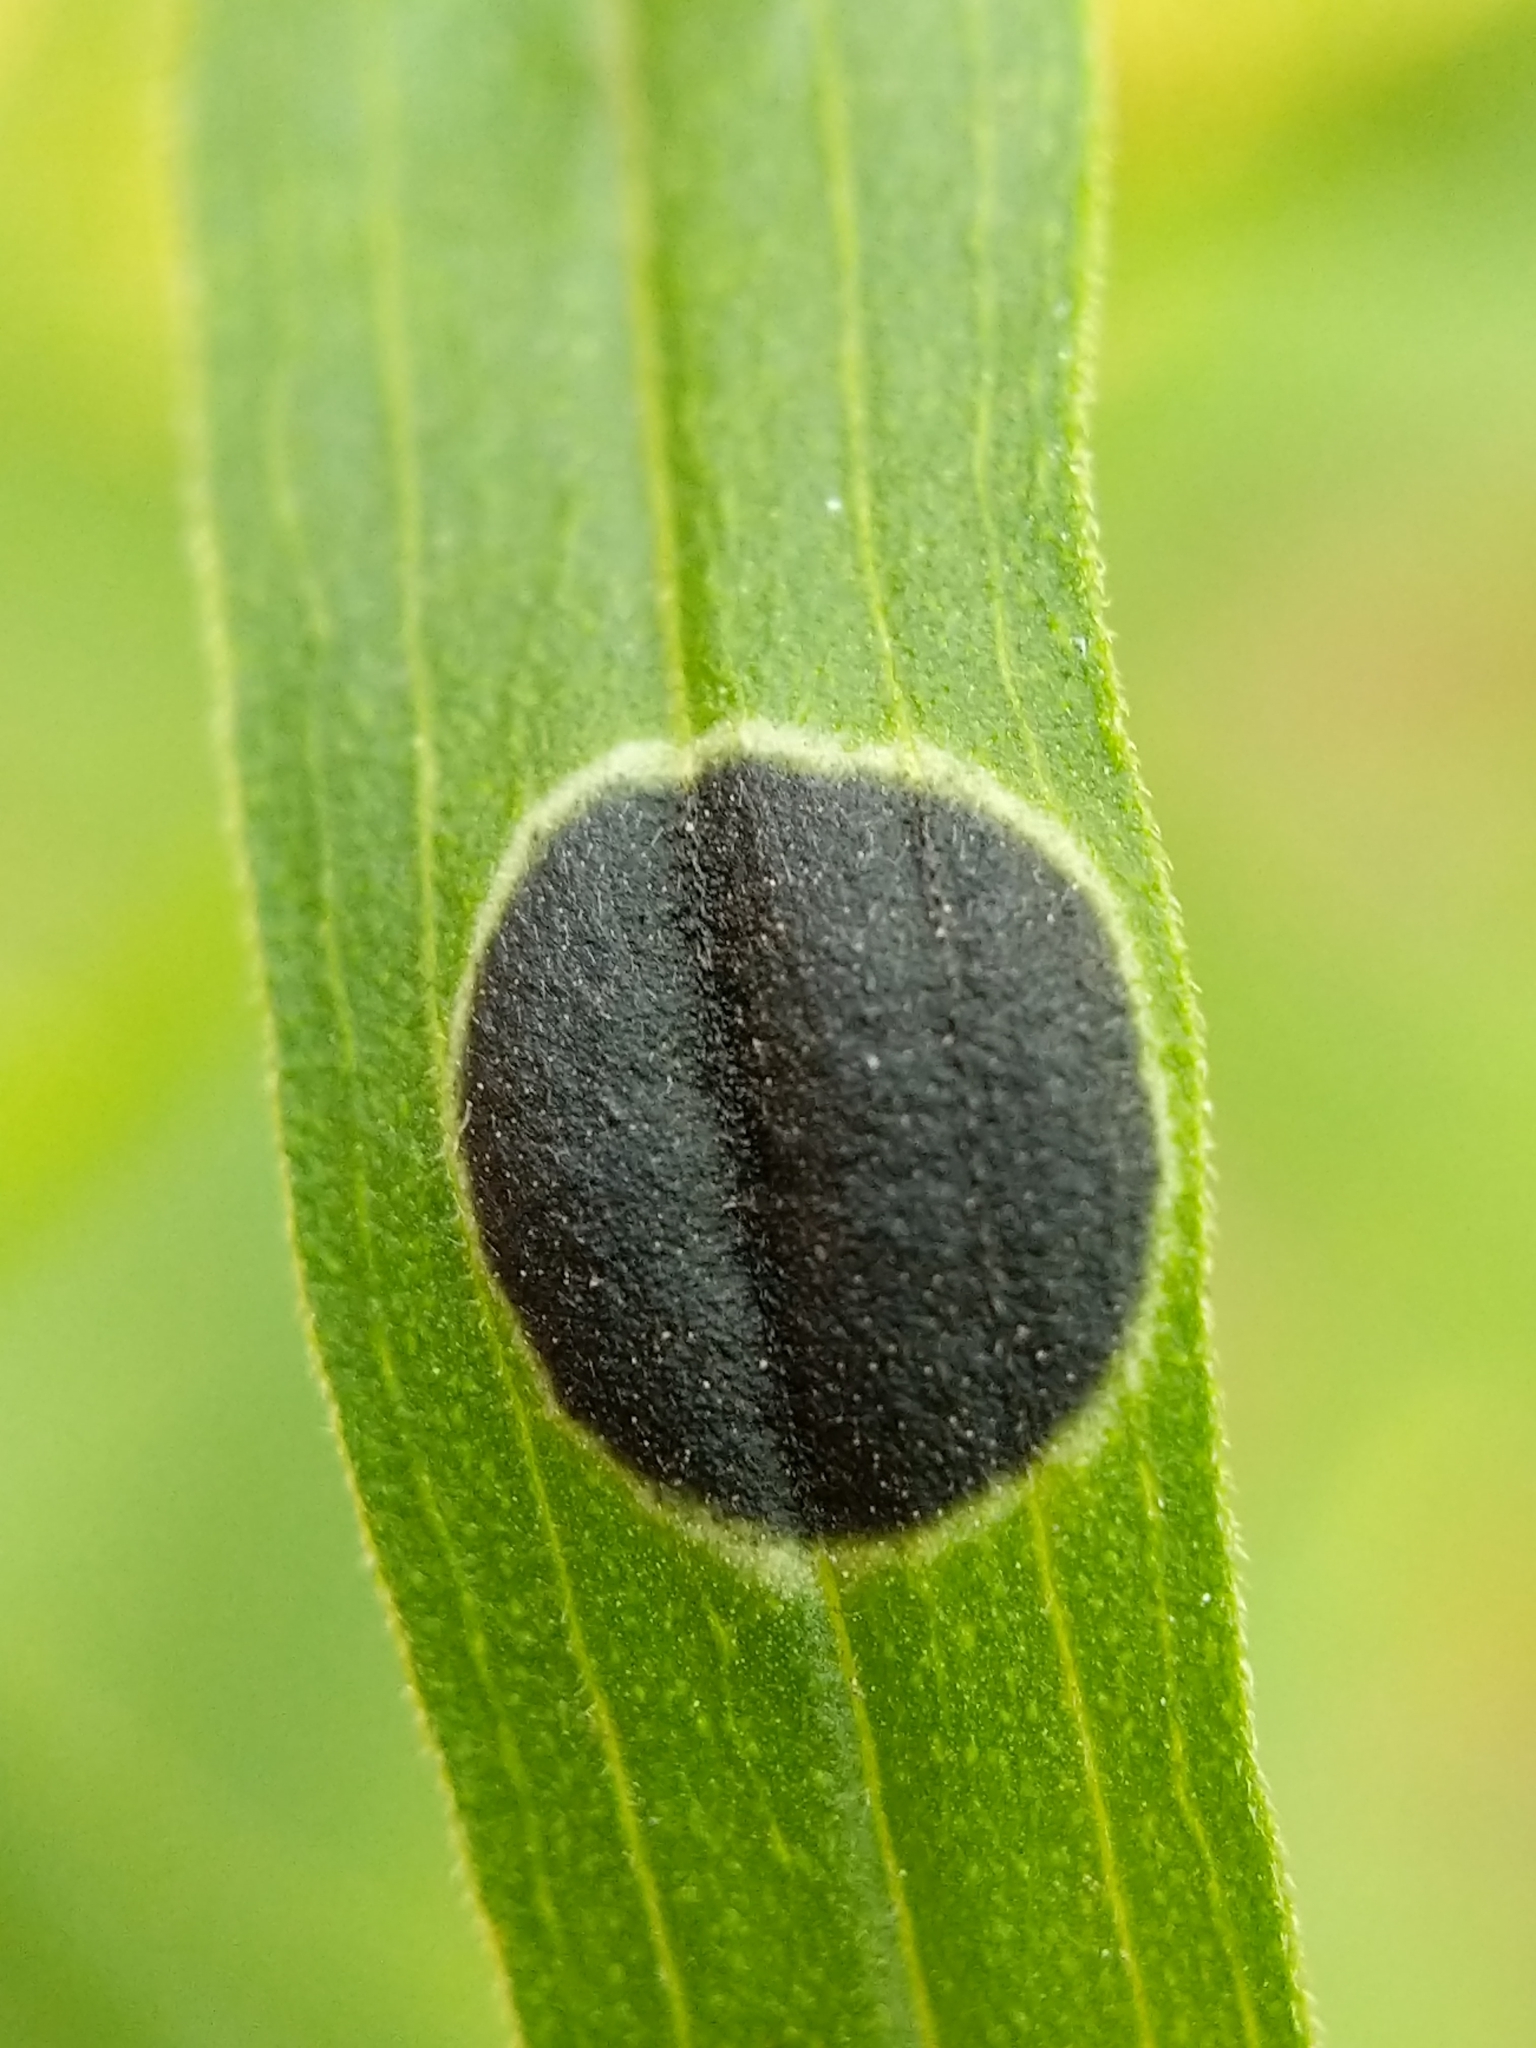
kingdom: Animalia
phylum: Arthropoda
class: Insecta
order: Diptera
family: Cecidomyiidae
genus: Asteromyia
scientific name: Asteromyia euthamiae
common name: Euthamia leaf gall midge
